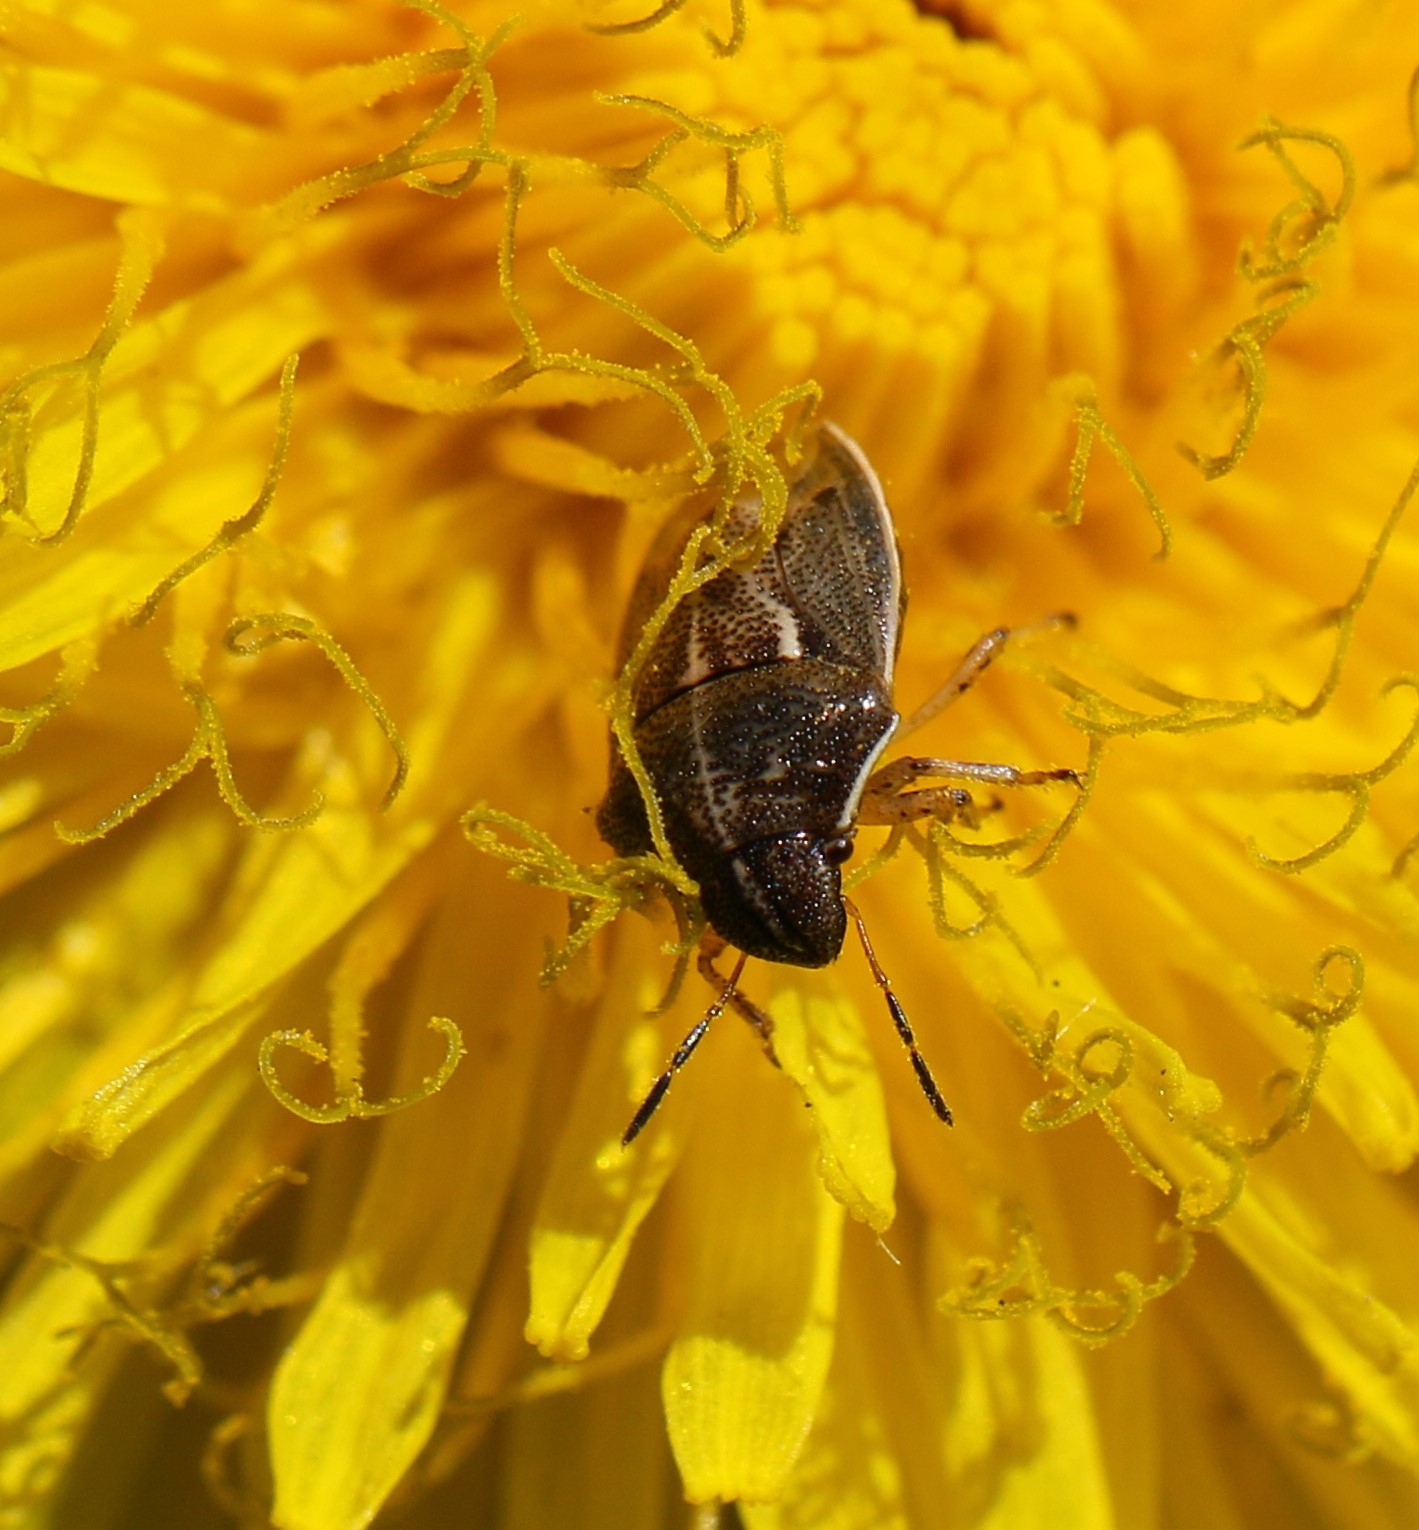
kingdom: Animalia
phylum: Arthropoda
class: Insecta
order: Hemiptera
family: Pentatomidae
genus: Neottiglossa
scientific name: Neottiglossa undata
